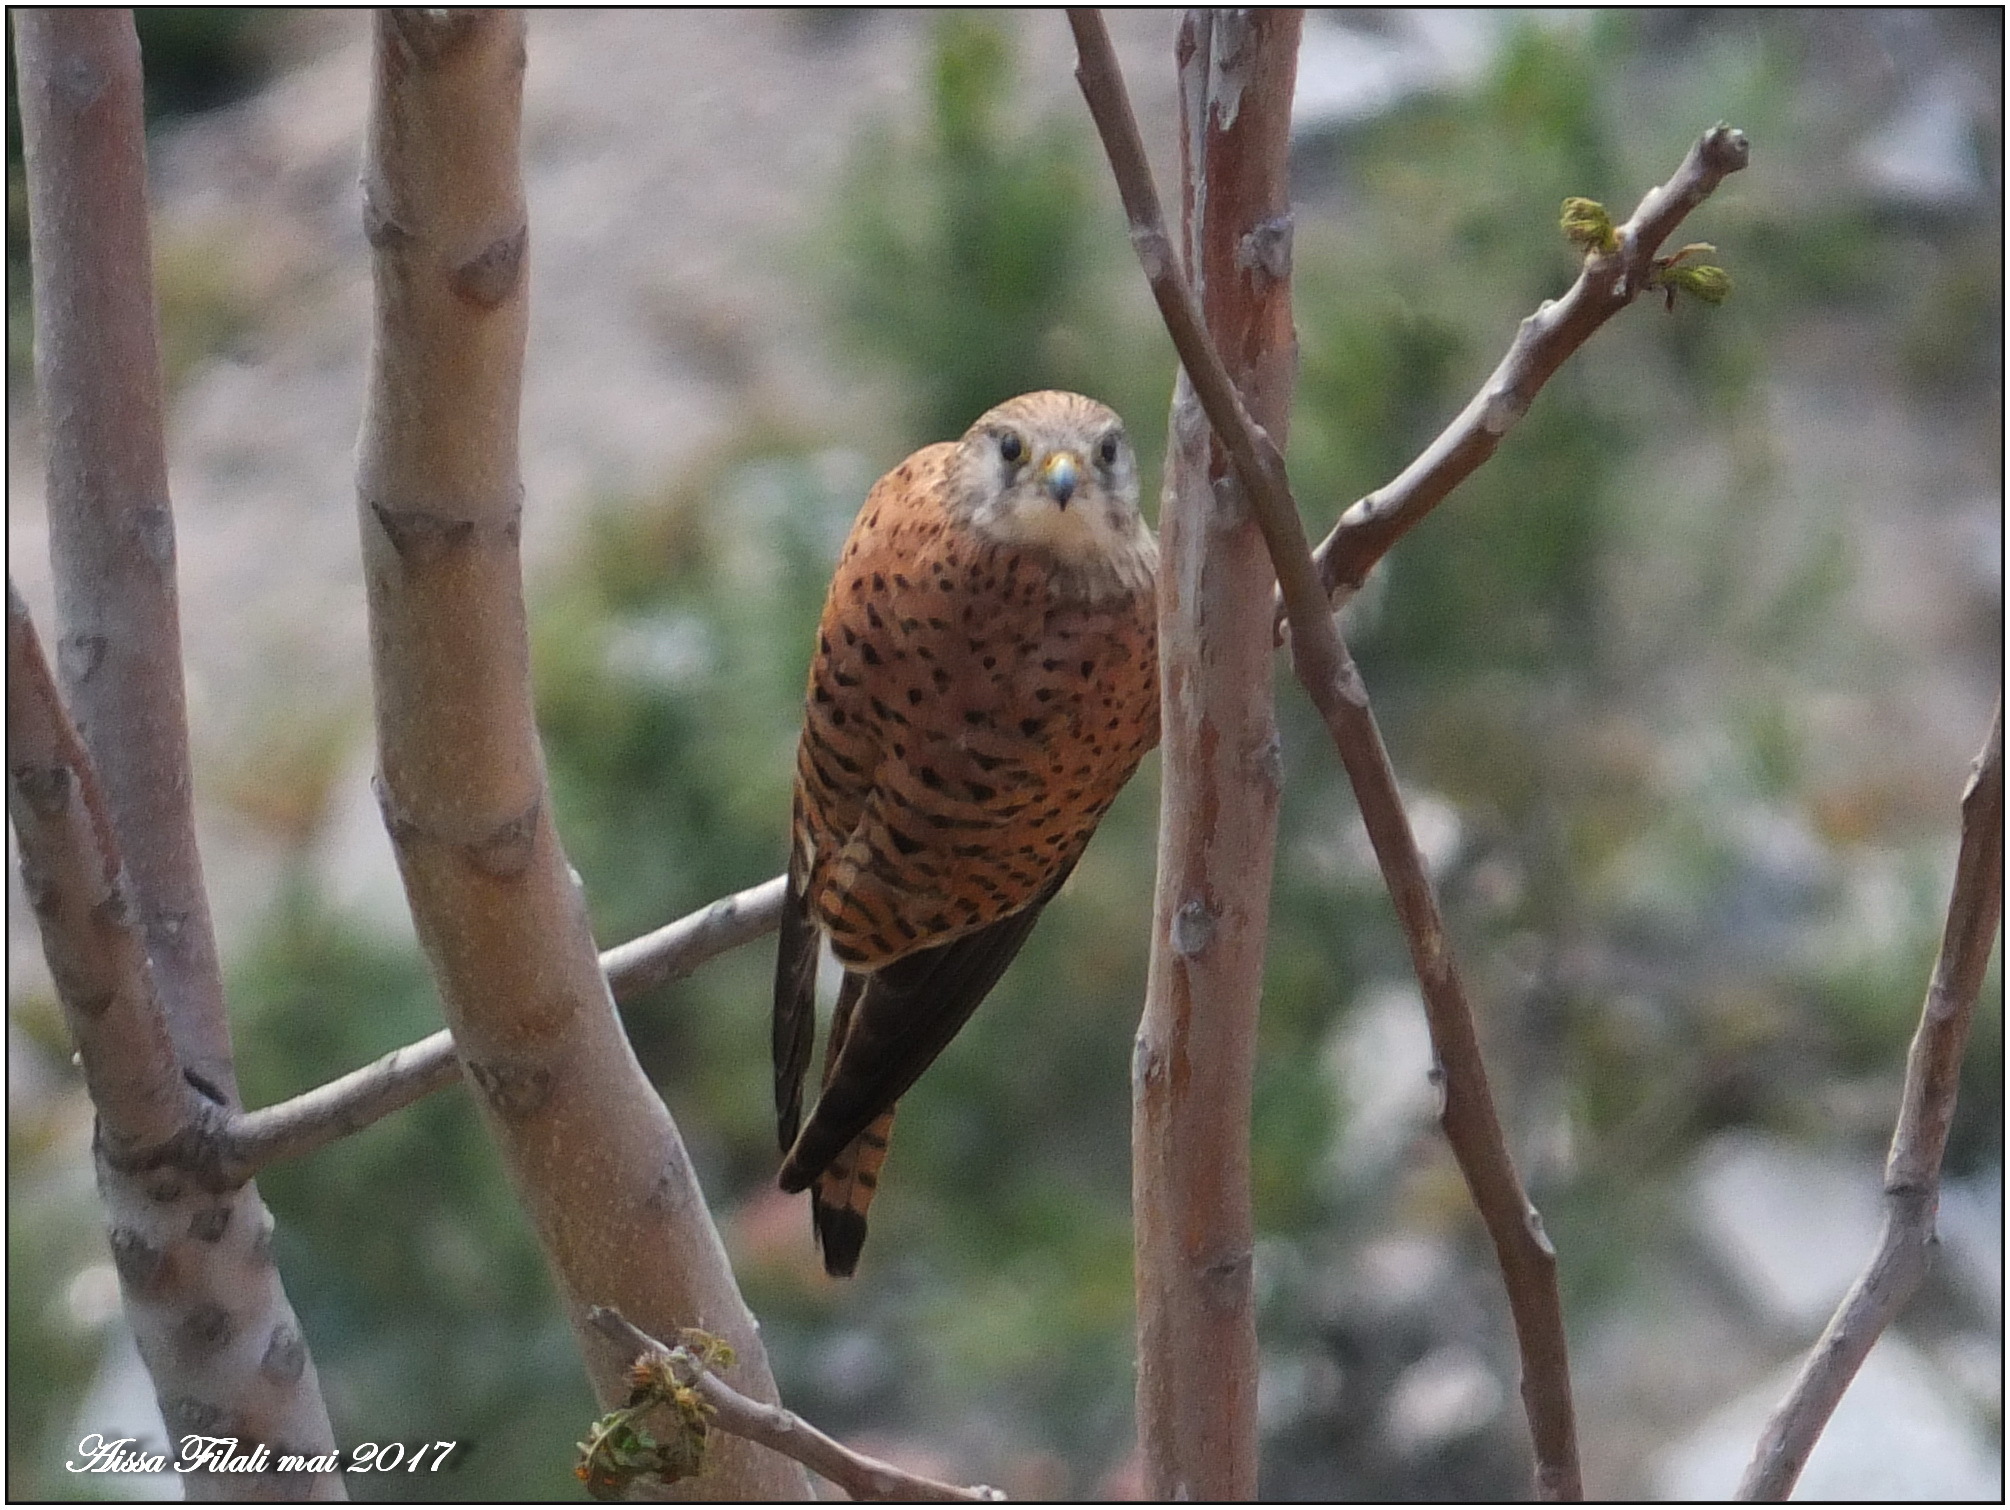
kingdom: Animalia
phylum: Chordata
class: Aves
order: Falconiformes
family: Falconidae
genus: Falco
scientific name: Falco tinnunculus
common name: Common kestrel
